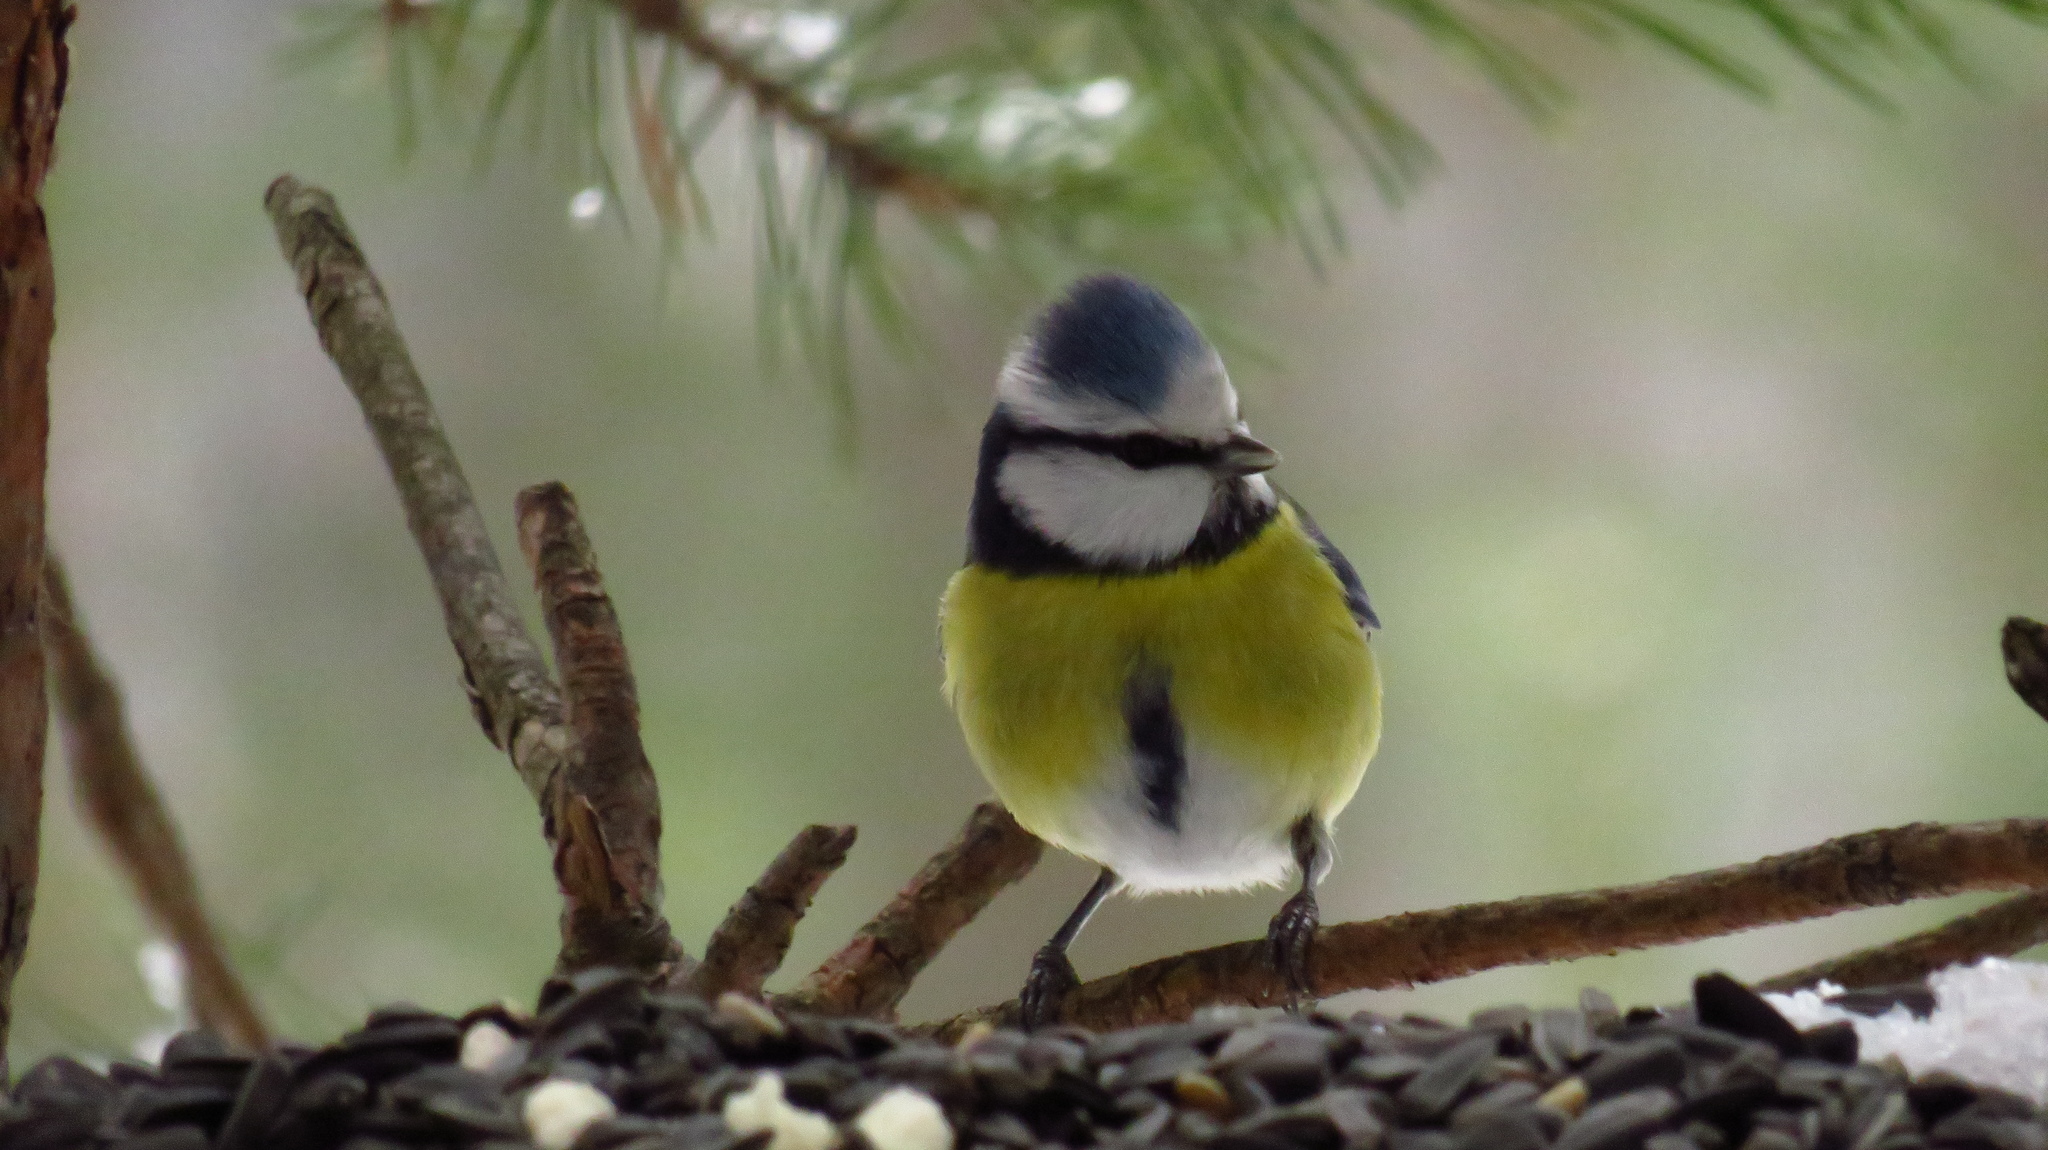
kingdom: Animalia
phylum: Chordata
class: Aves
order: Passeriformes
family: Paridae
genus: Cyanistes
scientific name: Cyanistes caeruleus
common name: Eurasian blue tit
